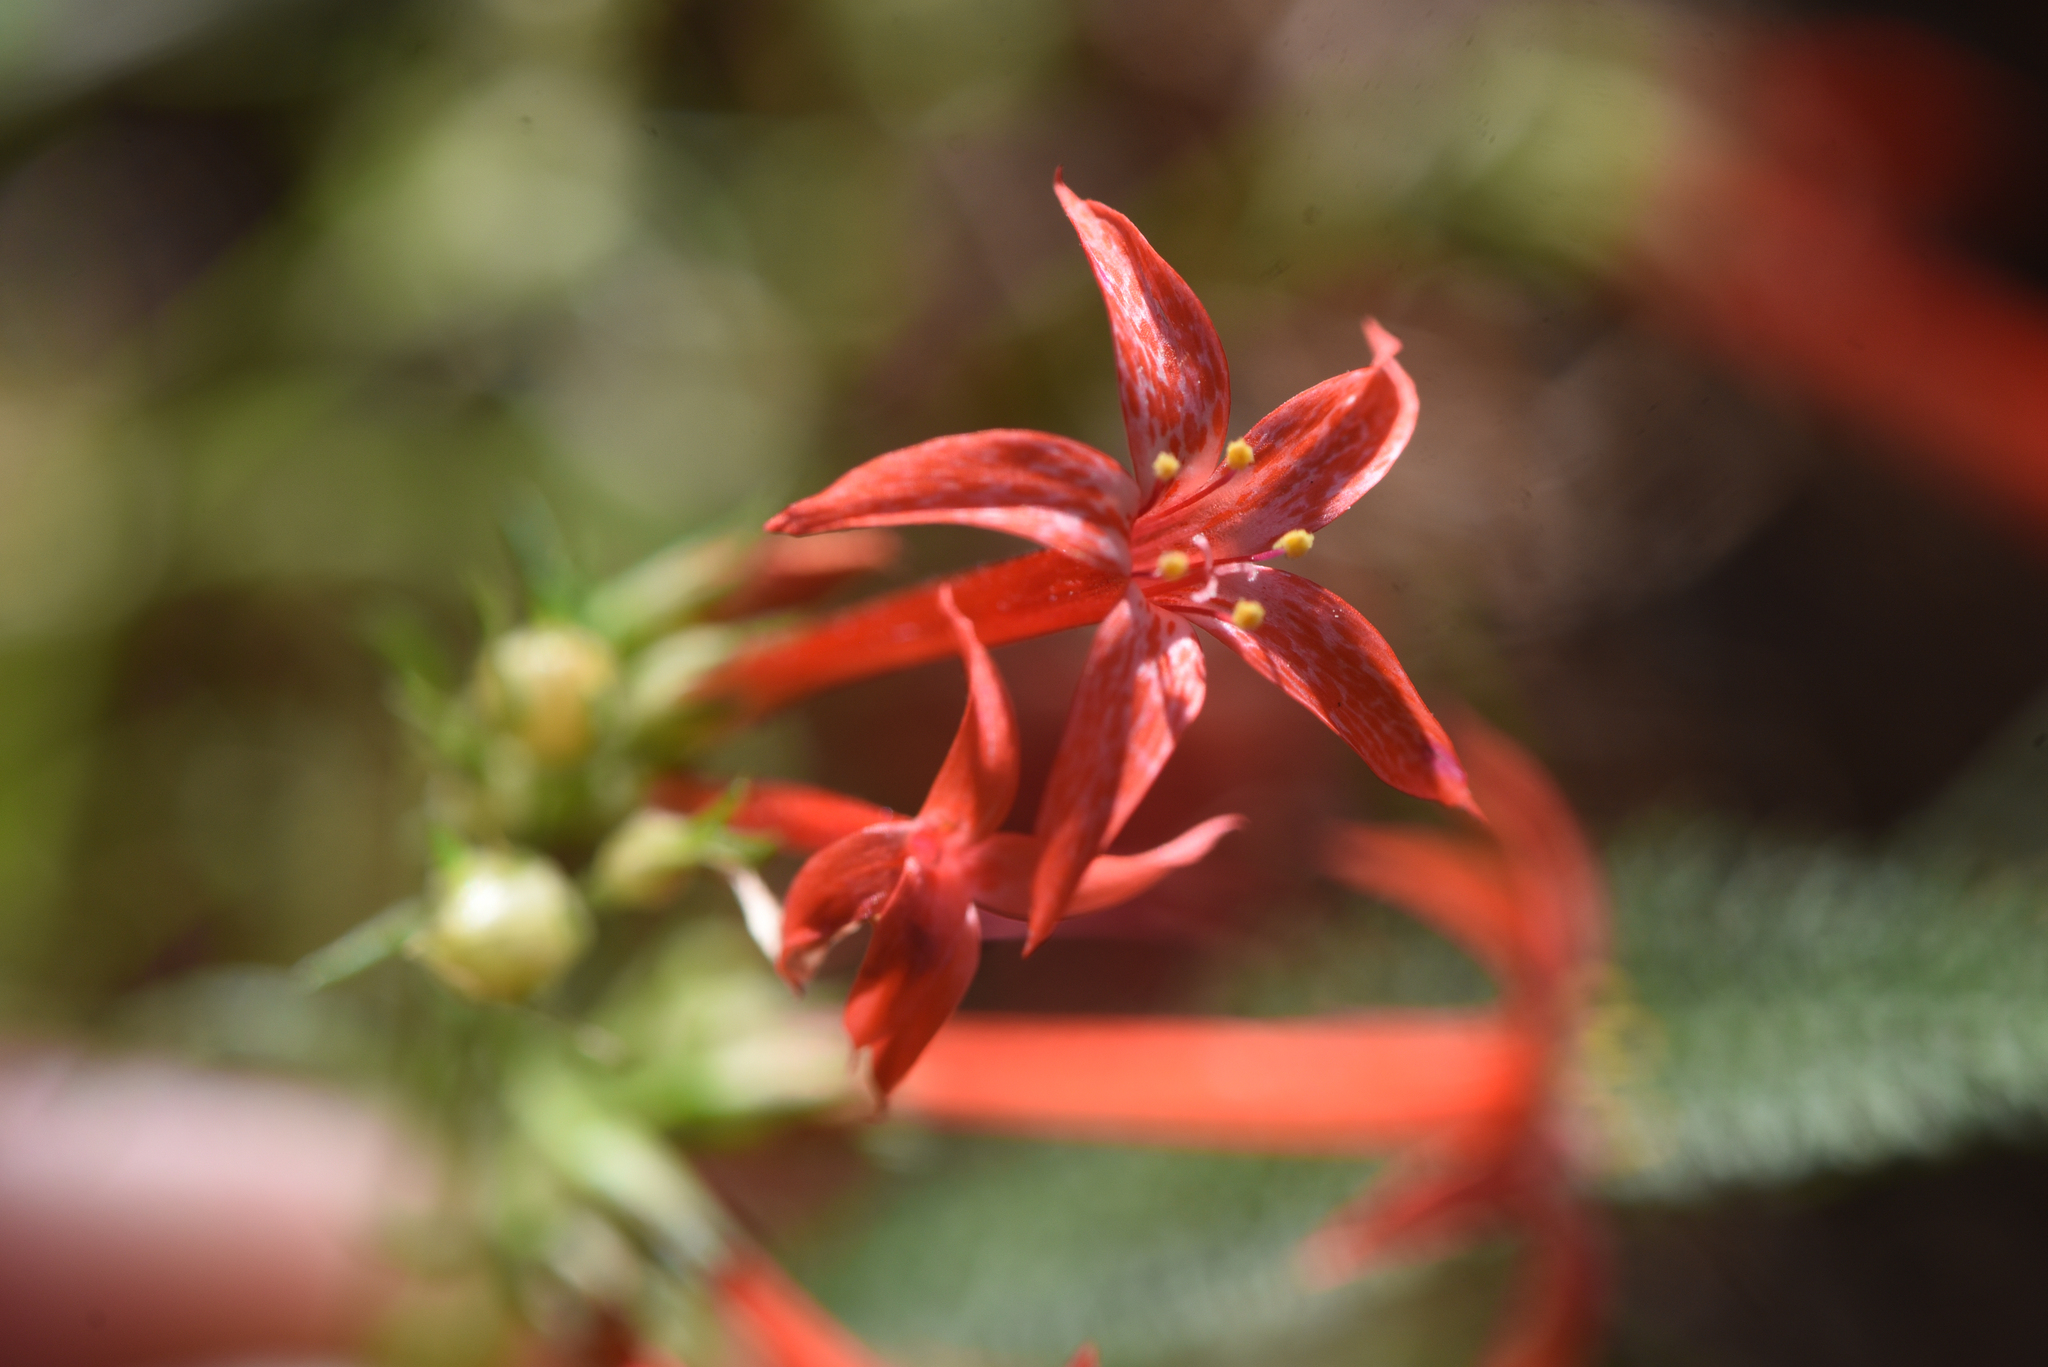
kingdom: Plantae
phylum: Tracheophyta
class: Magnoliopsida
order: Ericales
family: Polemoniaceae
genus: Ipomopsis
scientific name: Ipomopsis aggregata
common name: Scarlet gilia
